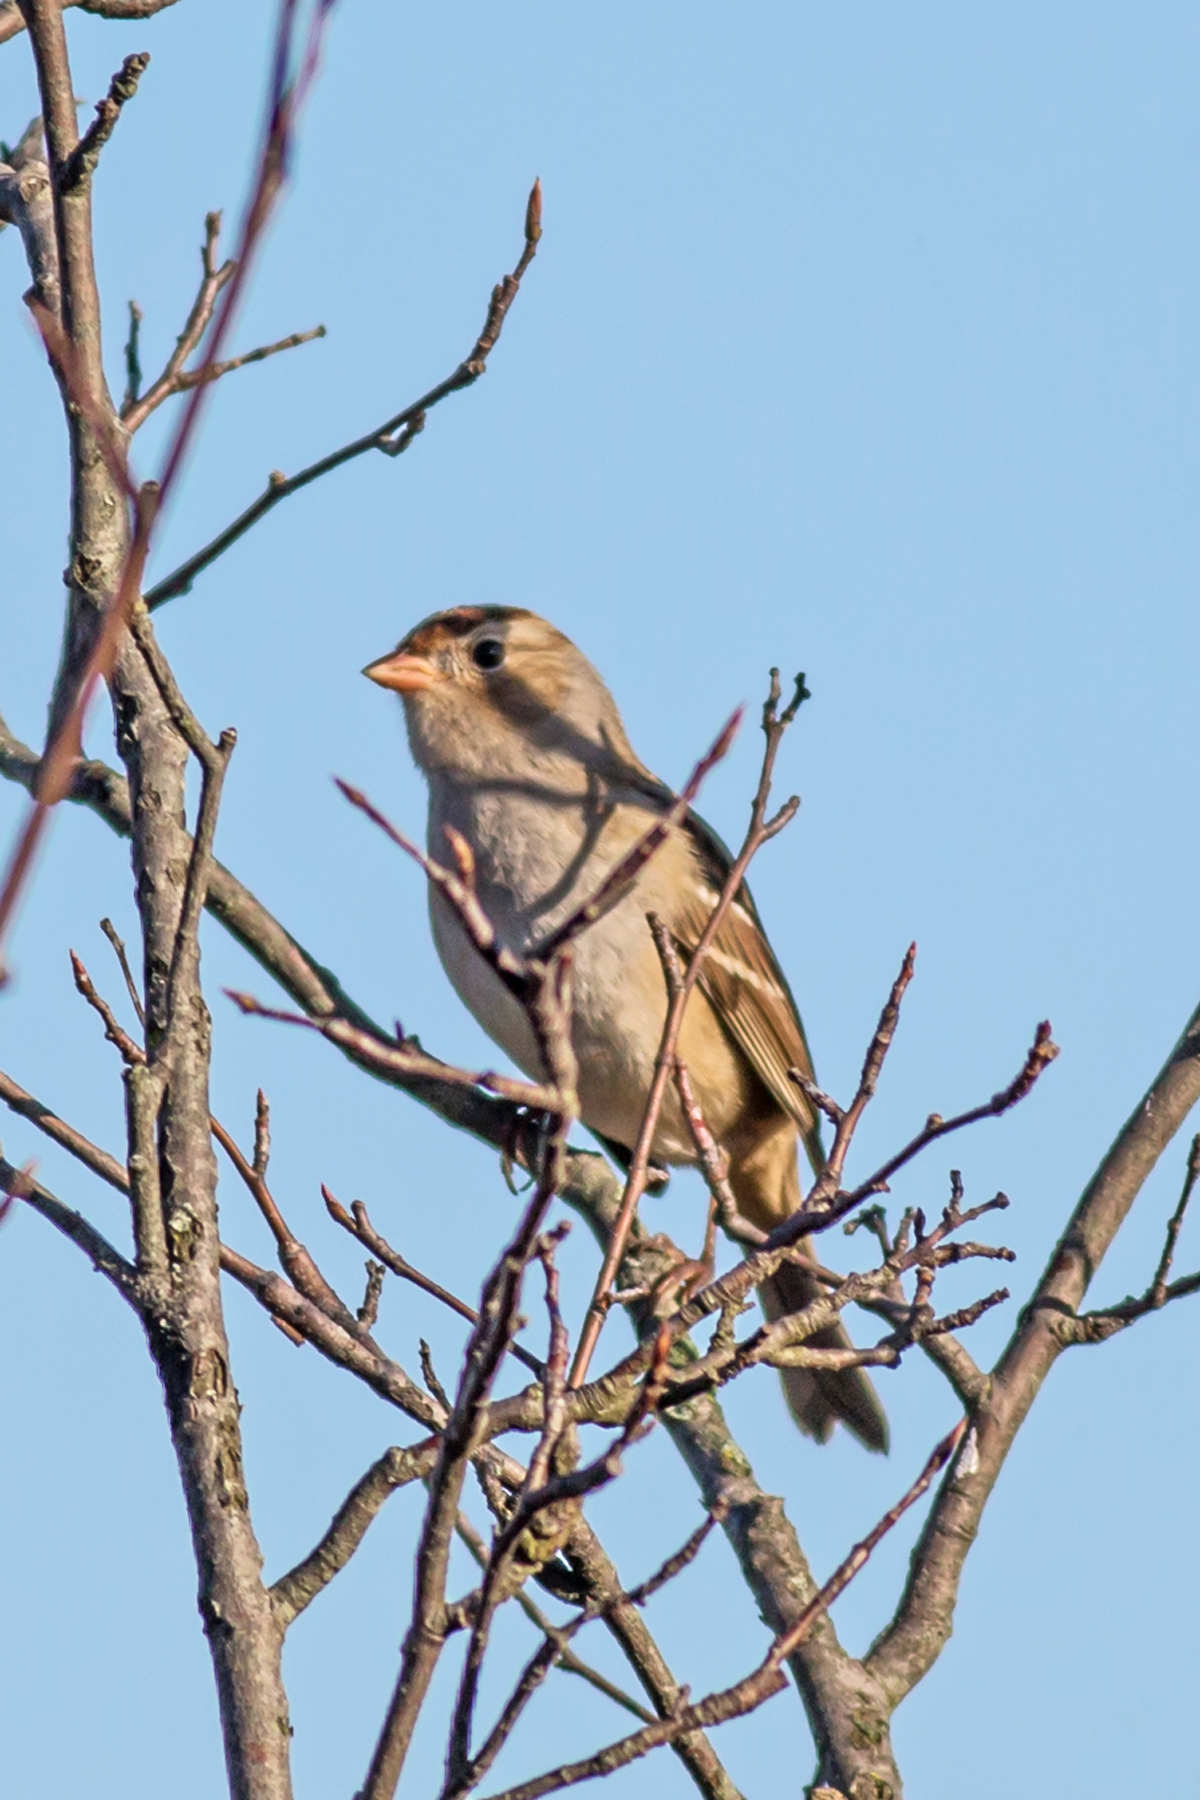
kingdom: Animalia
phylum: Chordata
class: Aves
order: Passeriformes
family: Passerellidae
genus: Zonotrichia
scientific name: Zonotrichia leucophrys
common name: White-crowned sparrow
